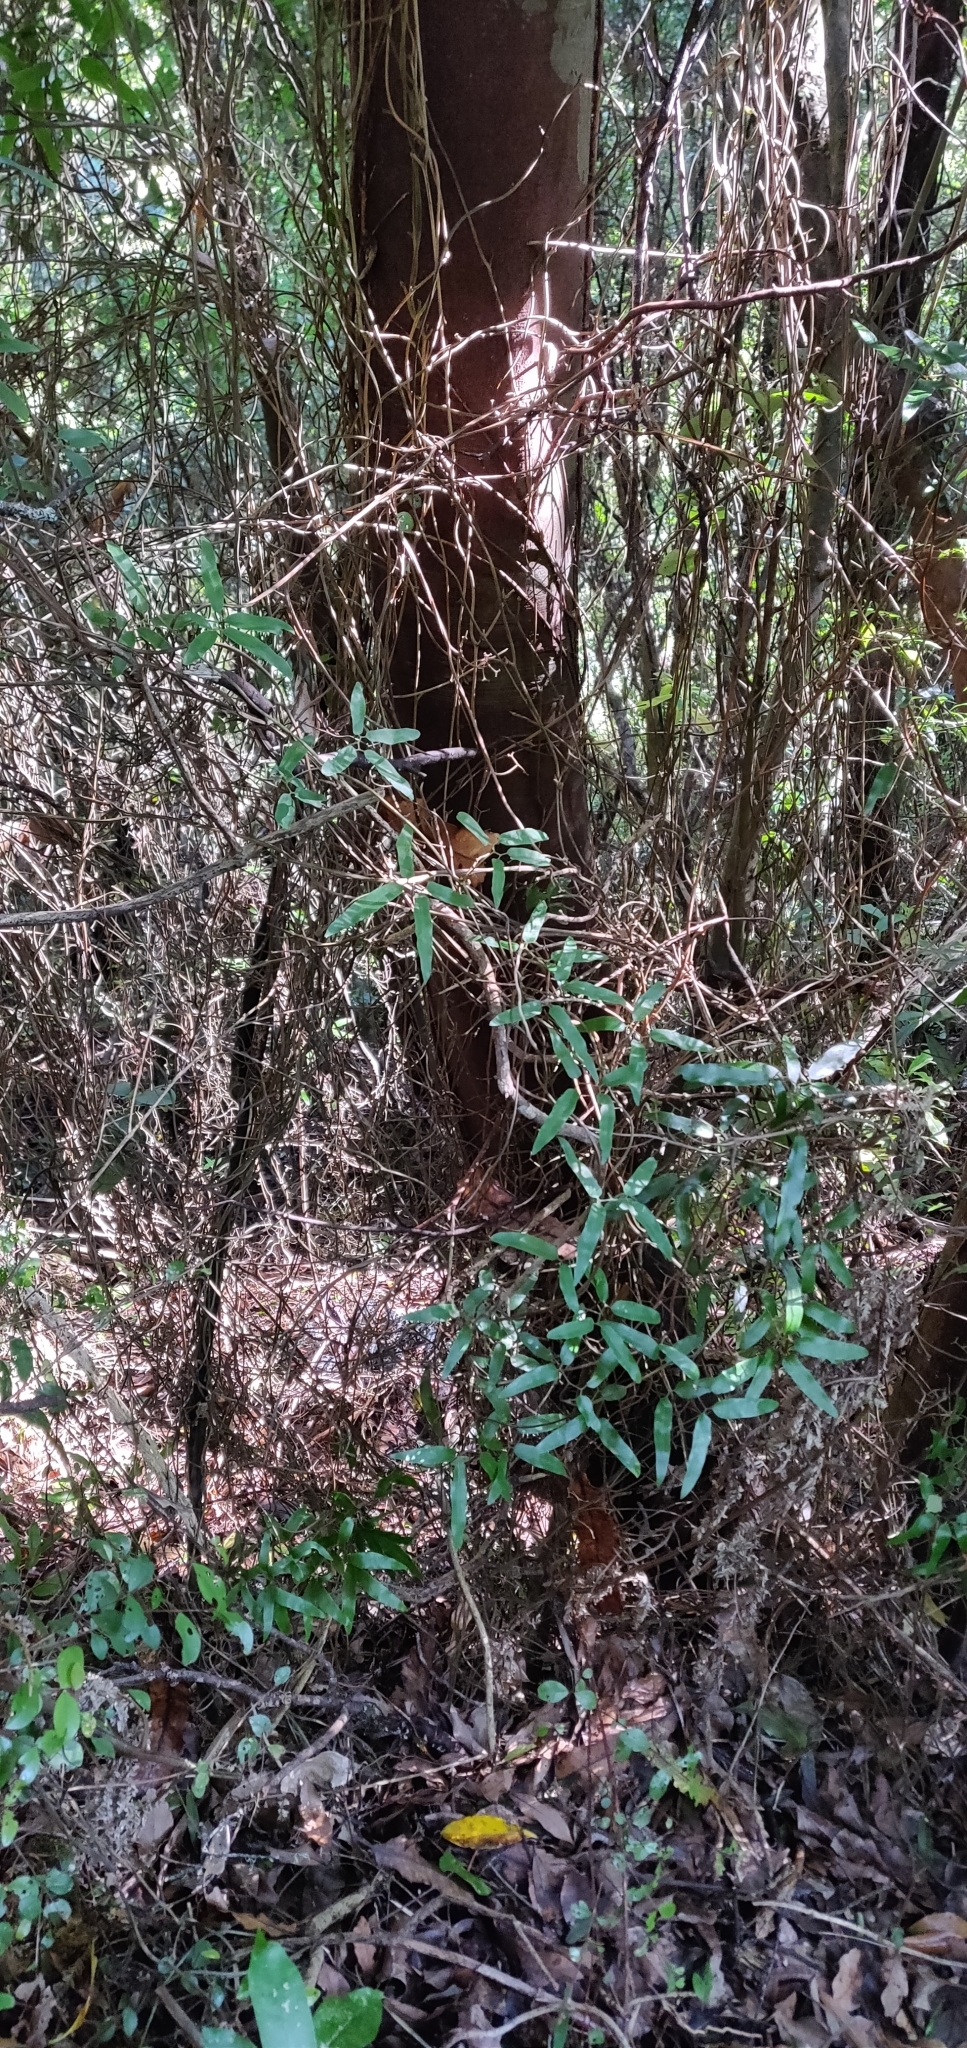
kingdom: Plantae
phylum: Tracheophyta
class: Polypodiopsida
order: Schizaeales
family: Lygodiaceae
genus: Lygodium
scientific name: Lygodium articulatum
